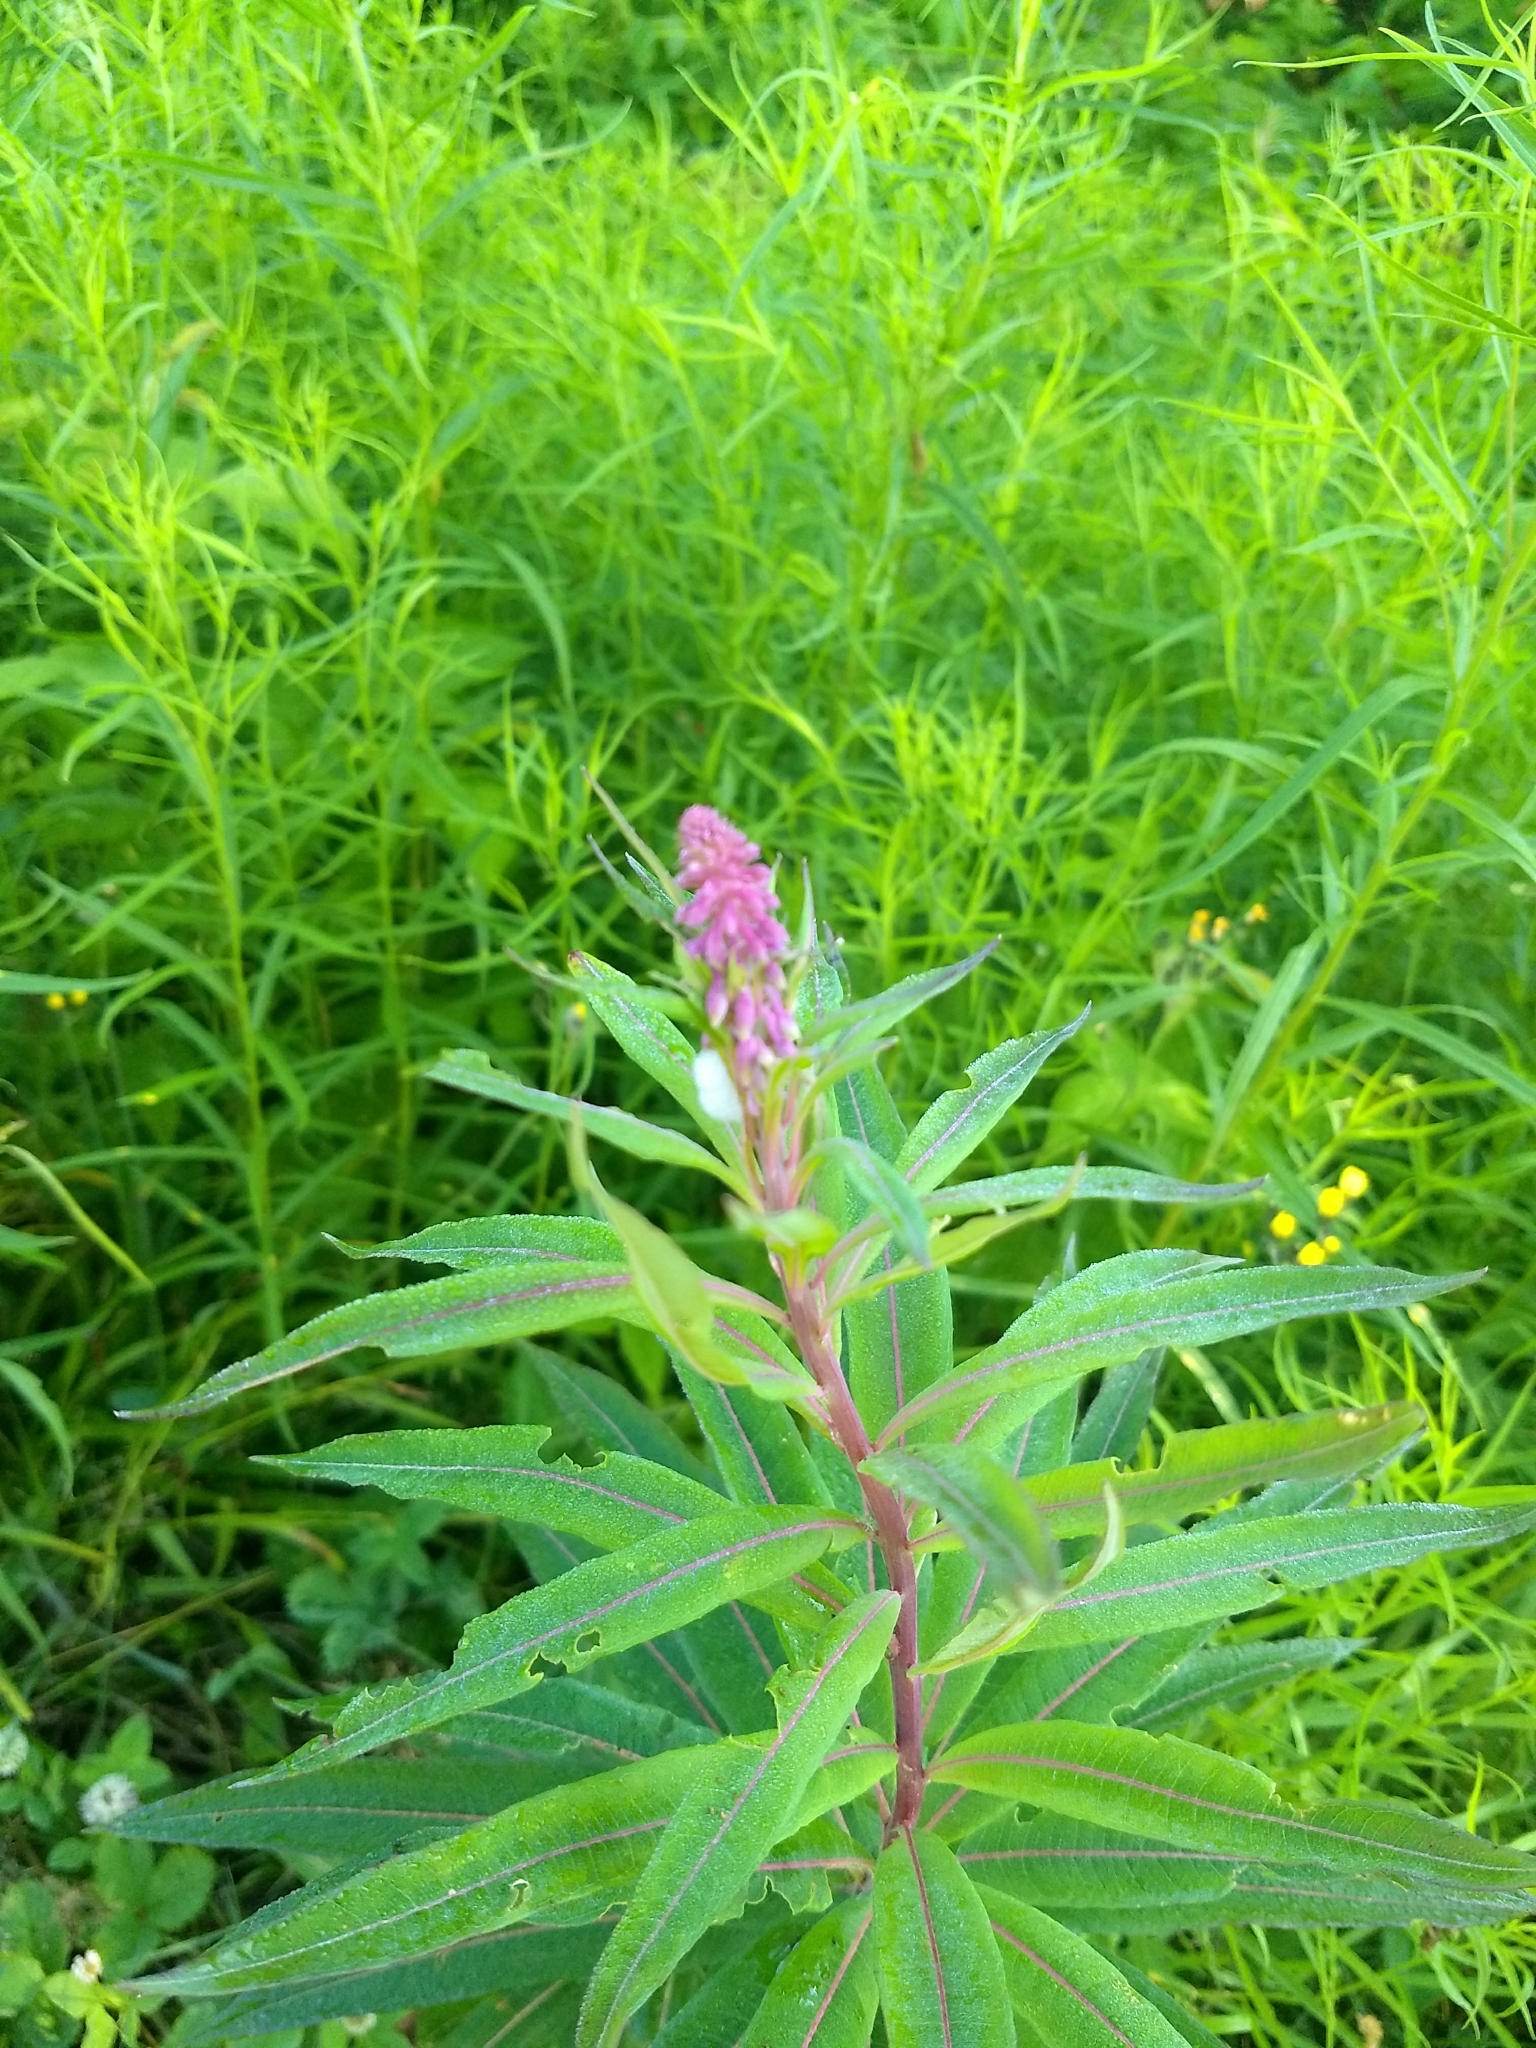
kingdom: Plantae
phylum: Tracheophyta
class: Magnoliopsida
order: Myrtales
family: Onagraceae
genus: Chamaenerion
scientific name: Chamaenerion angustifolium
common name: Fireweed
